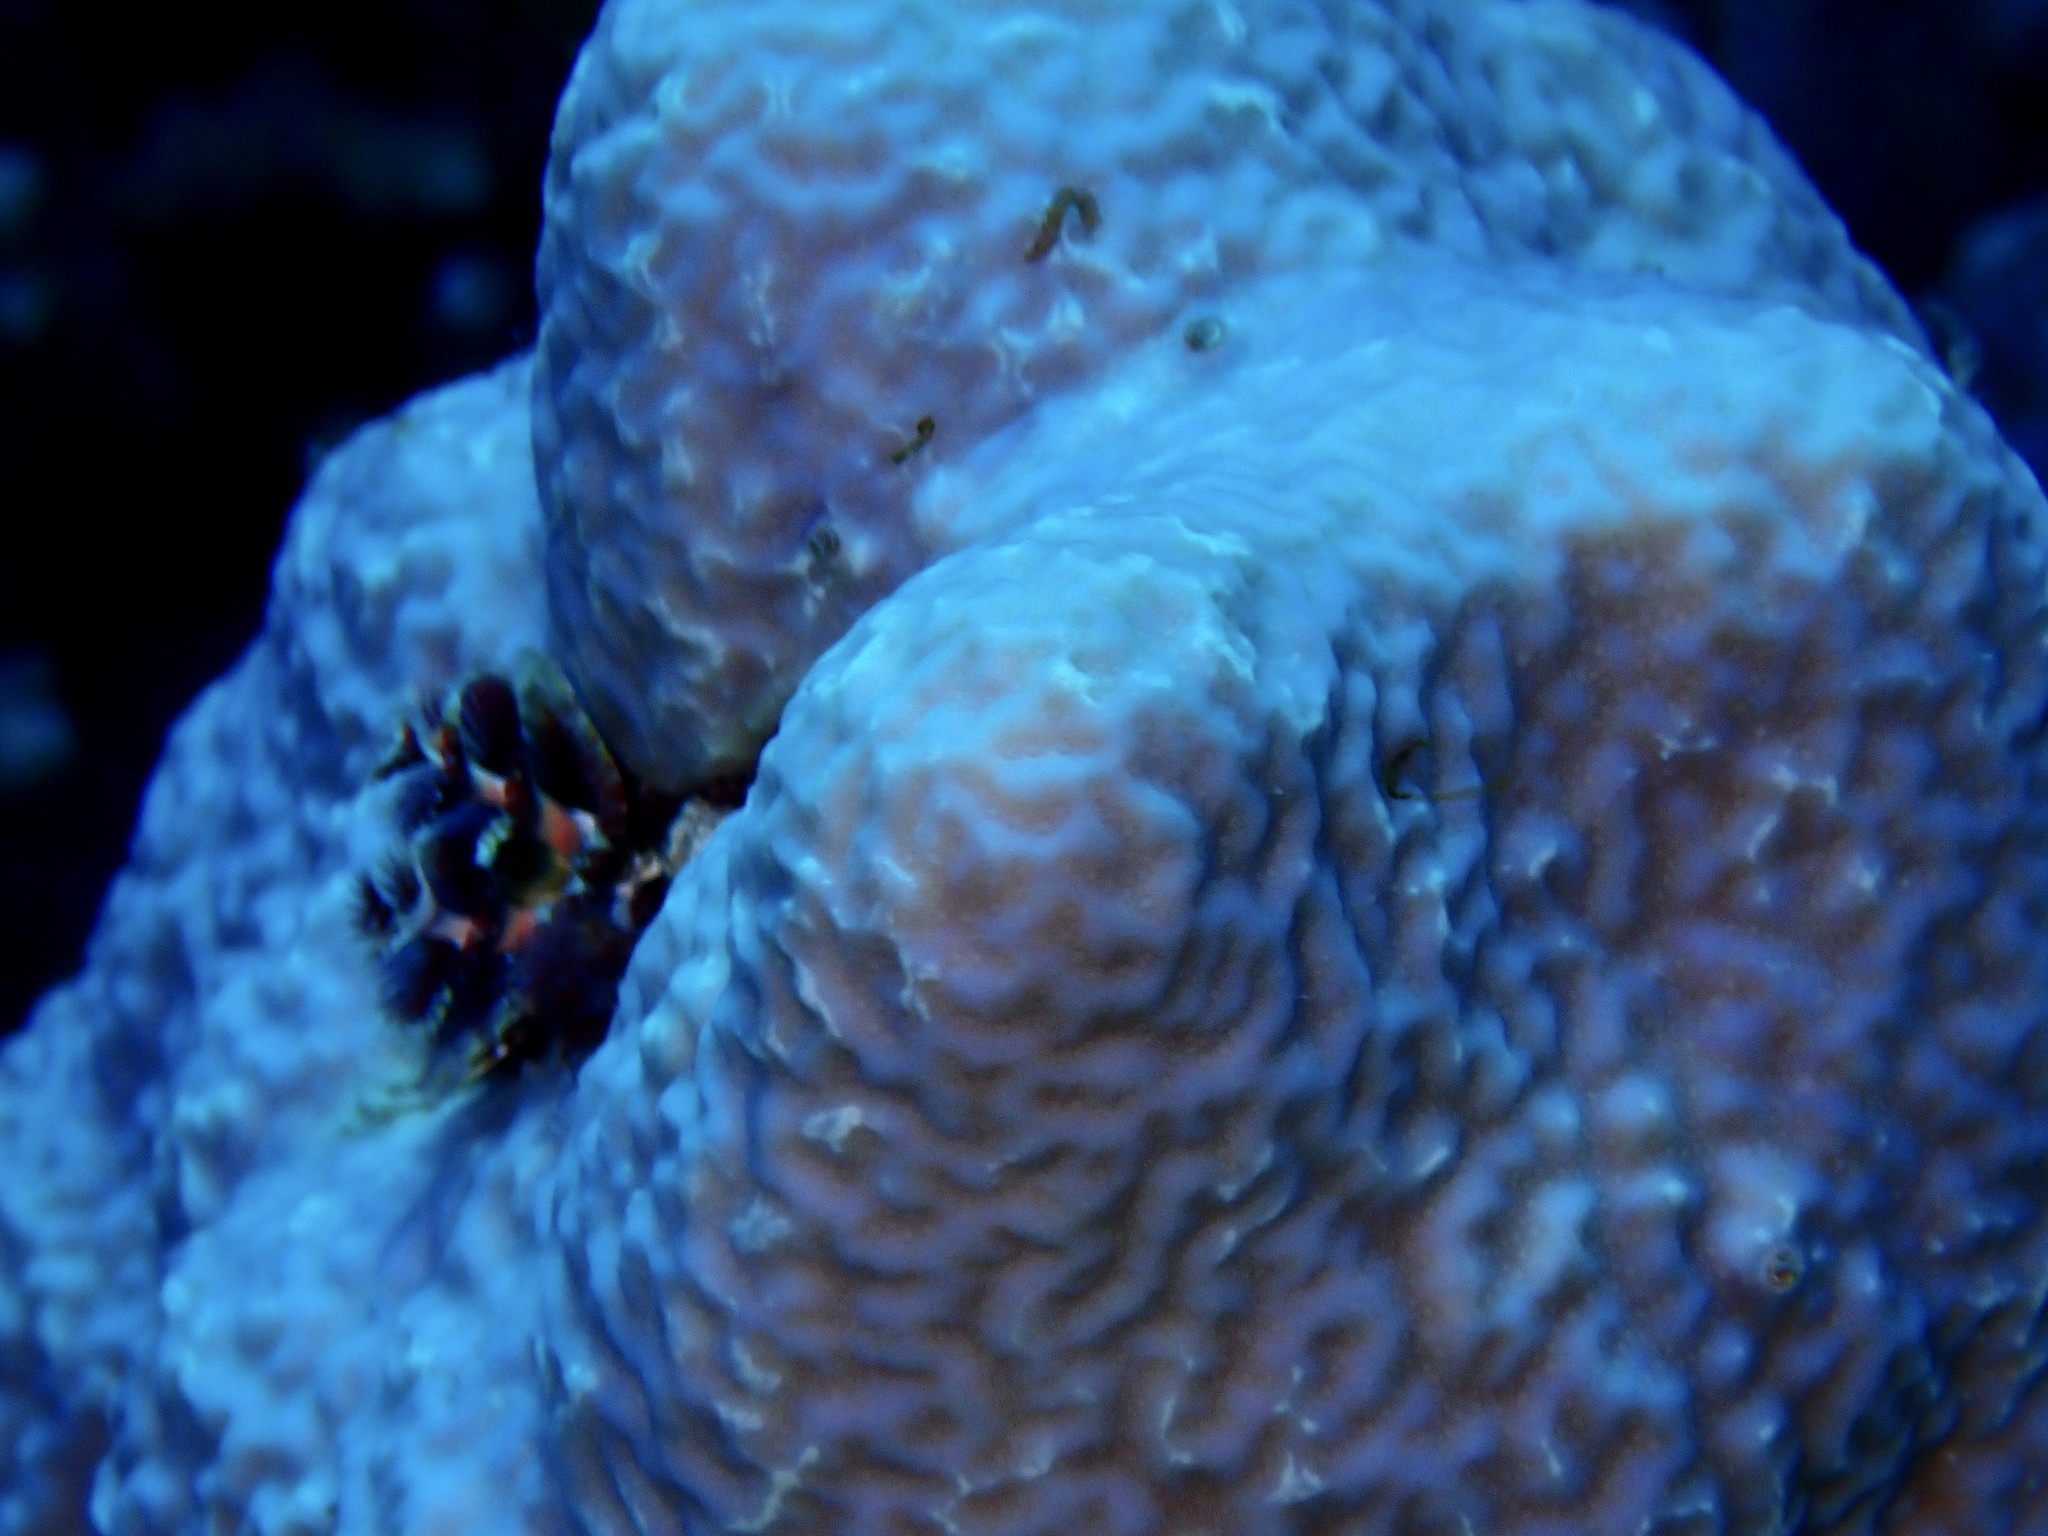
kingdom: Animalia
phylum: Cnidaria
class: Anthozoa
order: Scleractinia
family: Poritidae
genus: Porites
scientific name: Porites rus
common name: Hump coral
